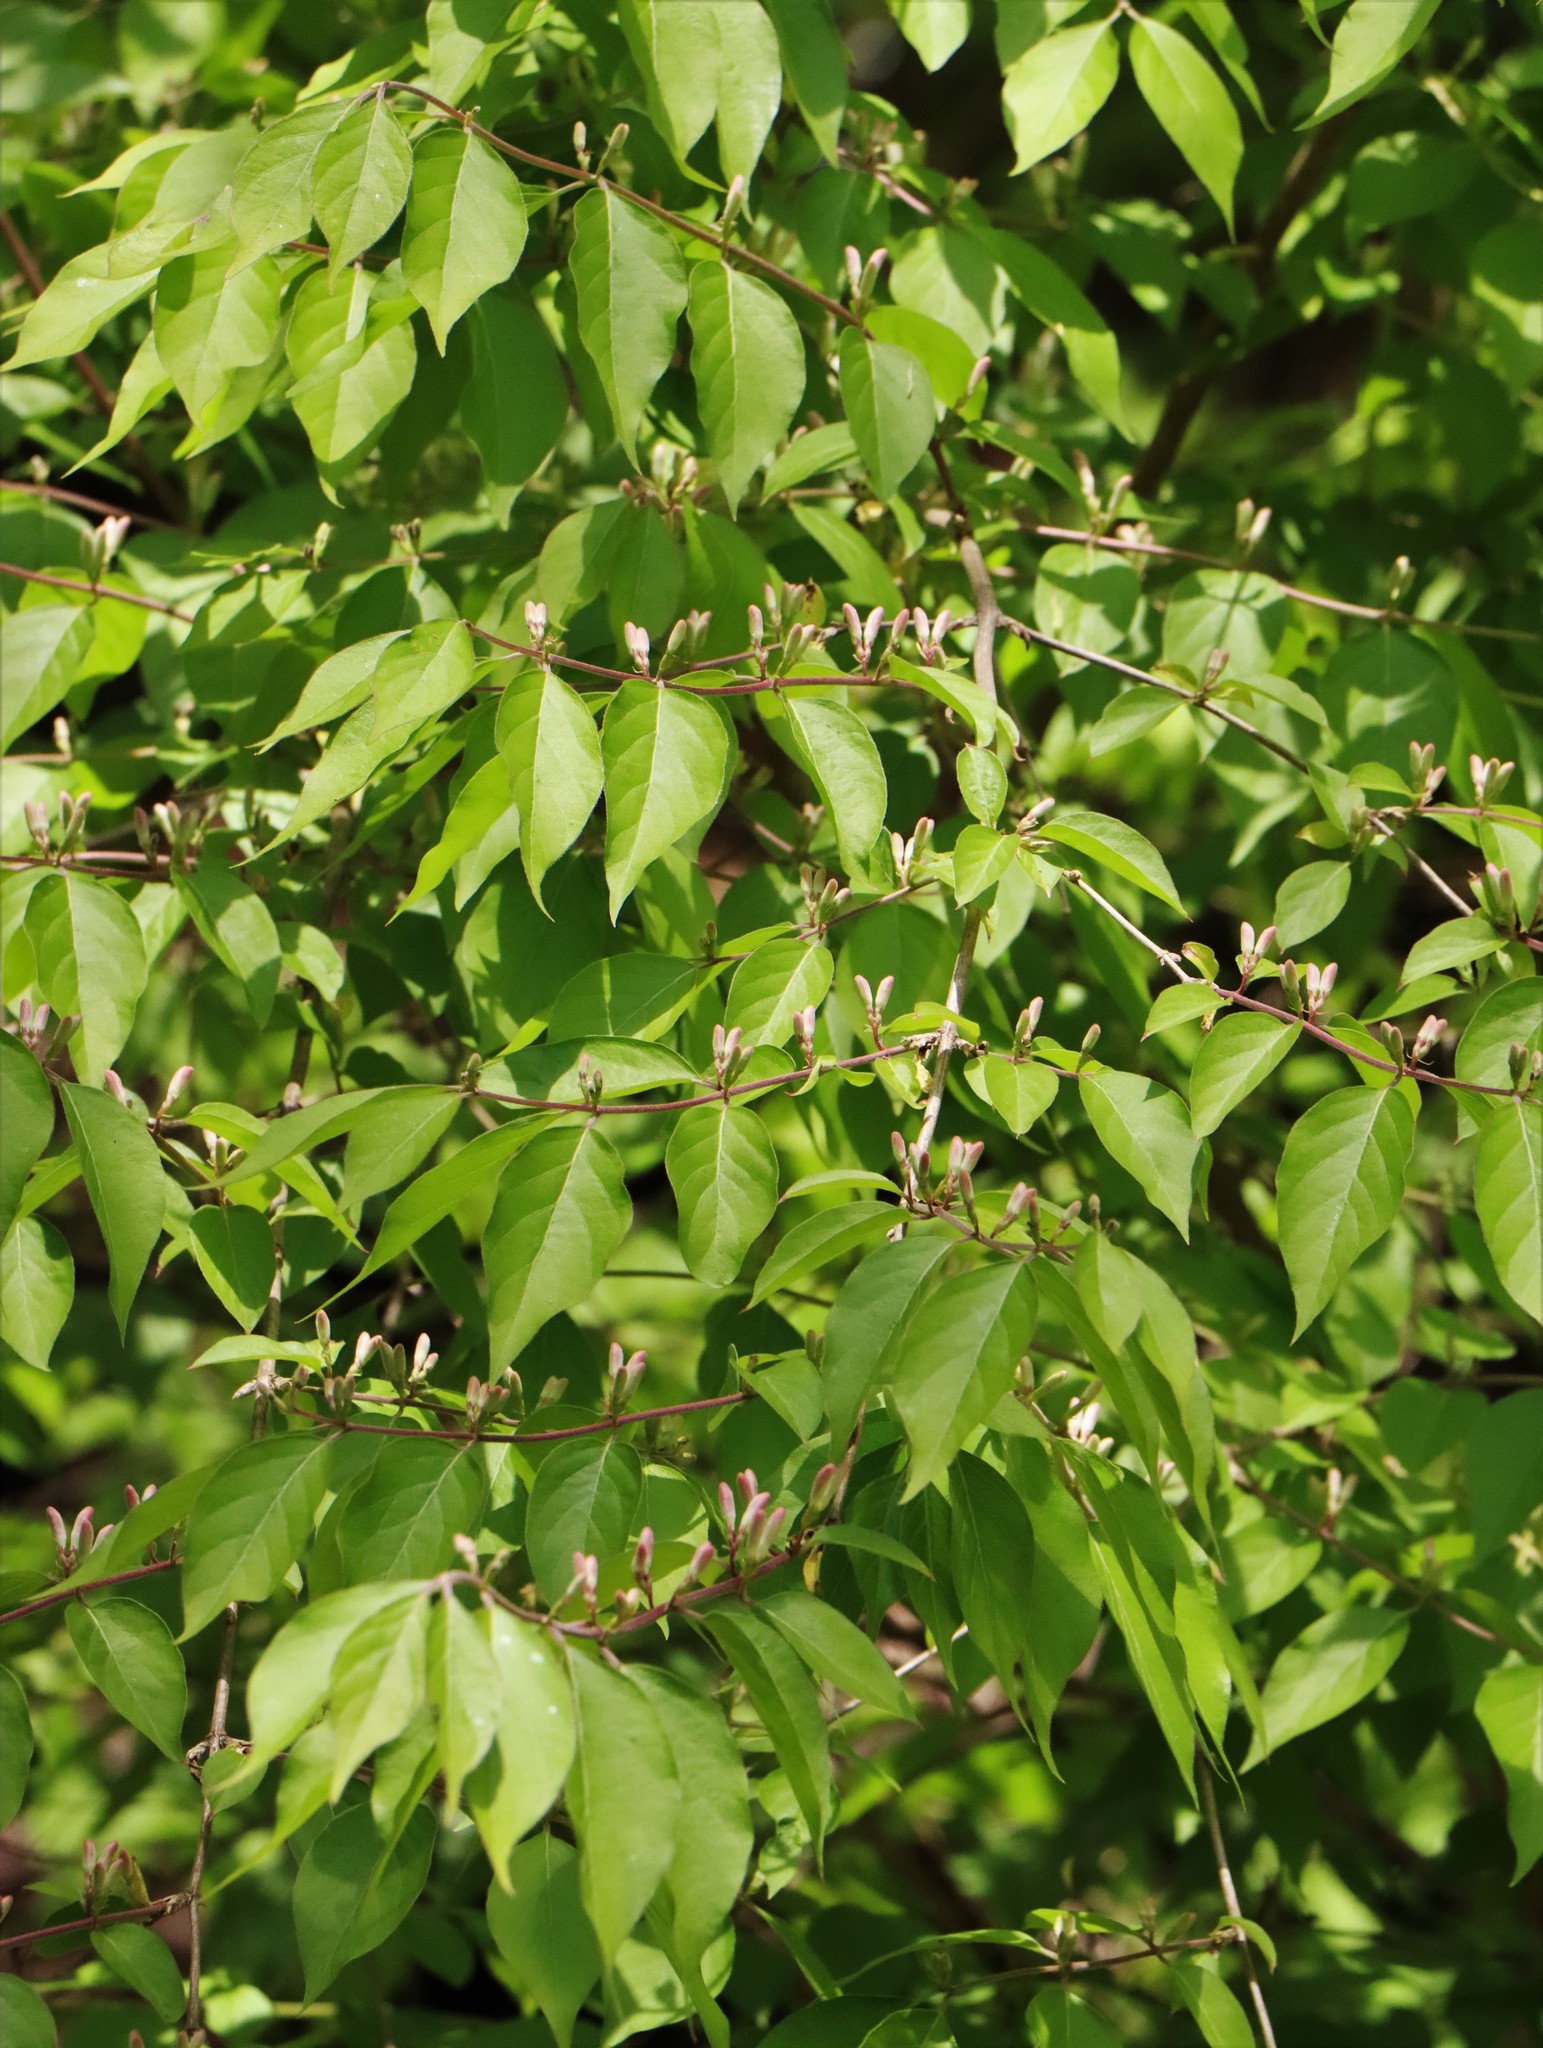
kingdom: Plantae
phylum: Tracheophyta
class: Magnoliopsida
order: Dipsacales
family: Caprifoliaceae
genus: Lonicera
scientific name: Lonicera maackii
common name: Amur honeysuckle
